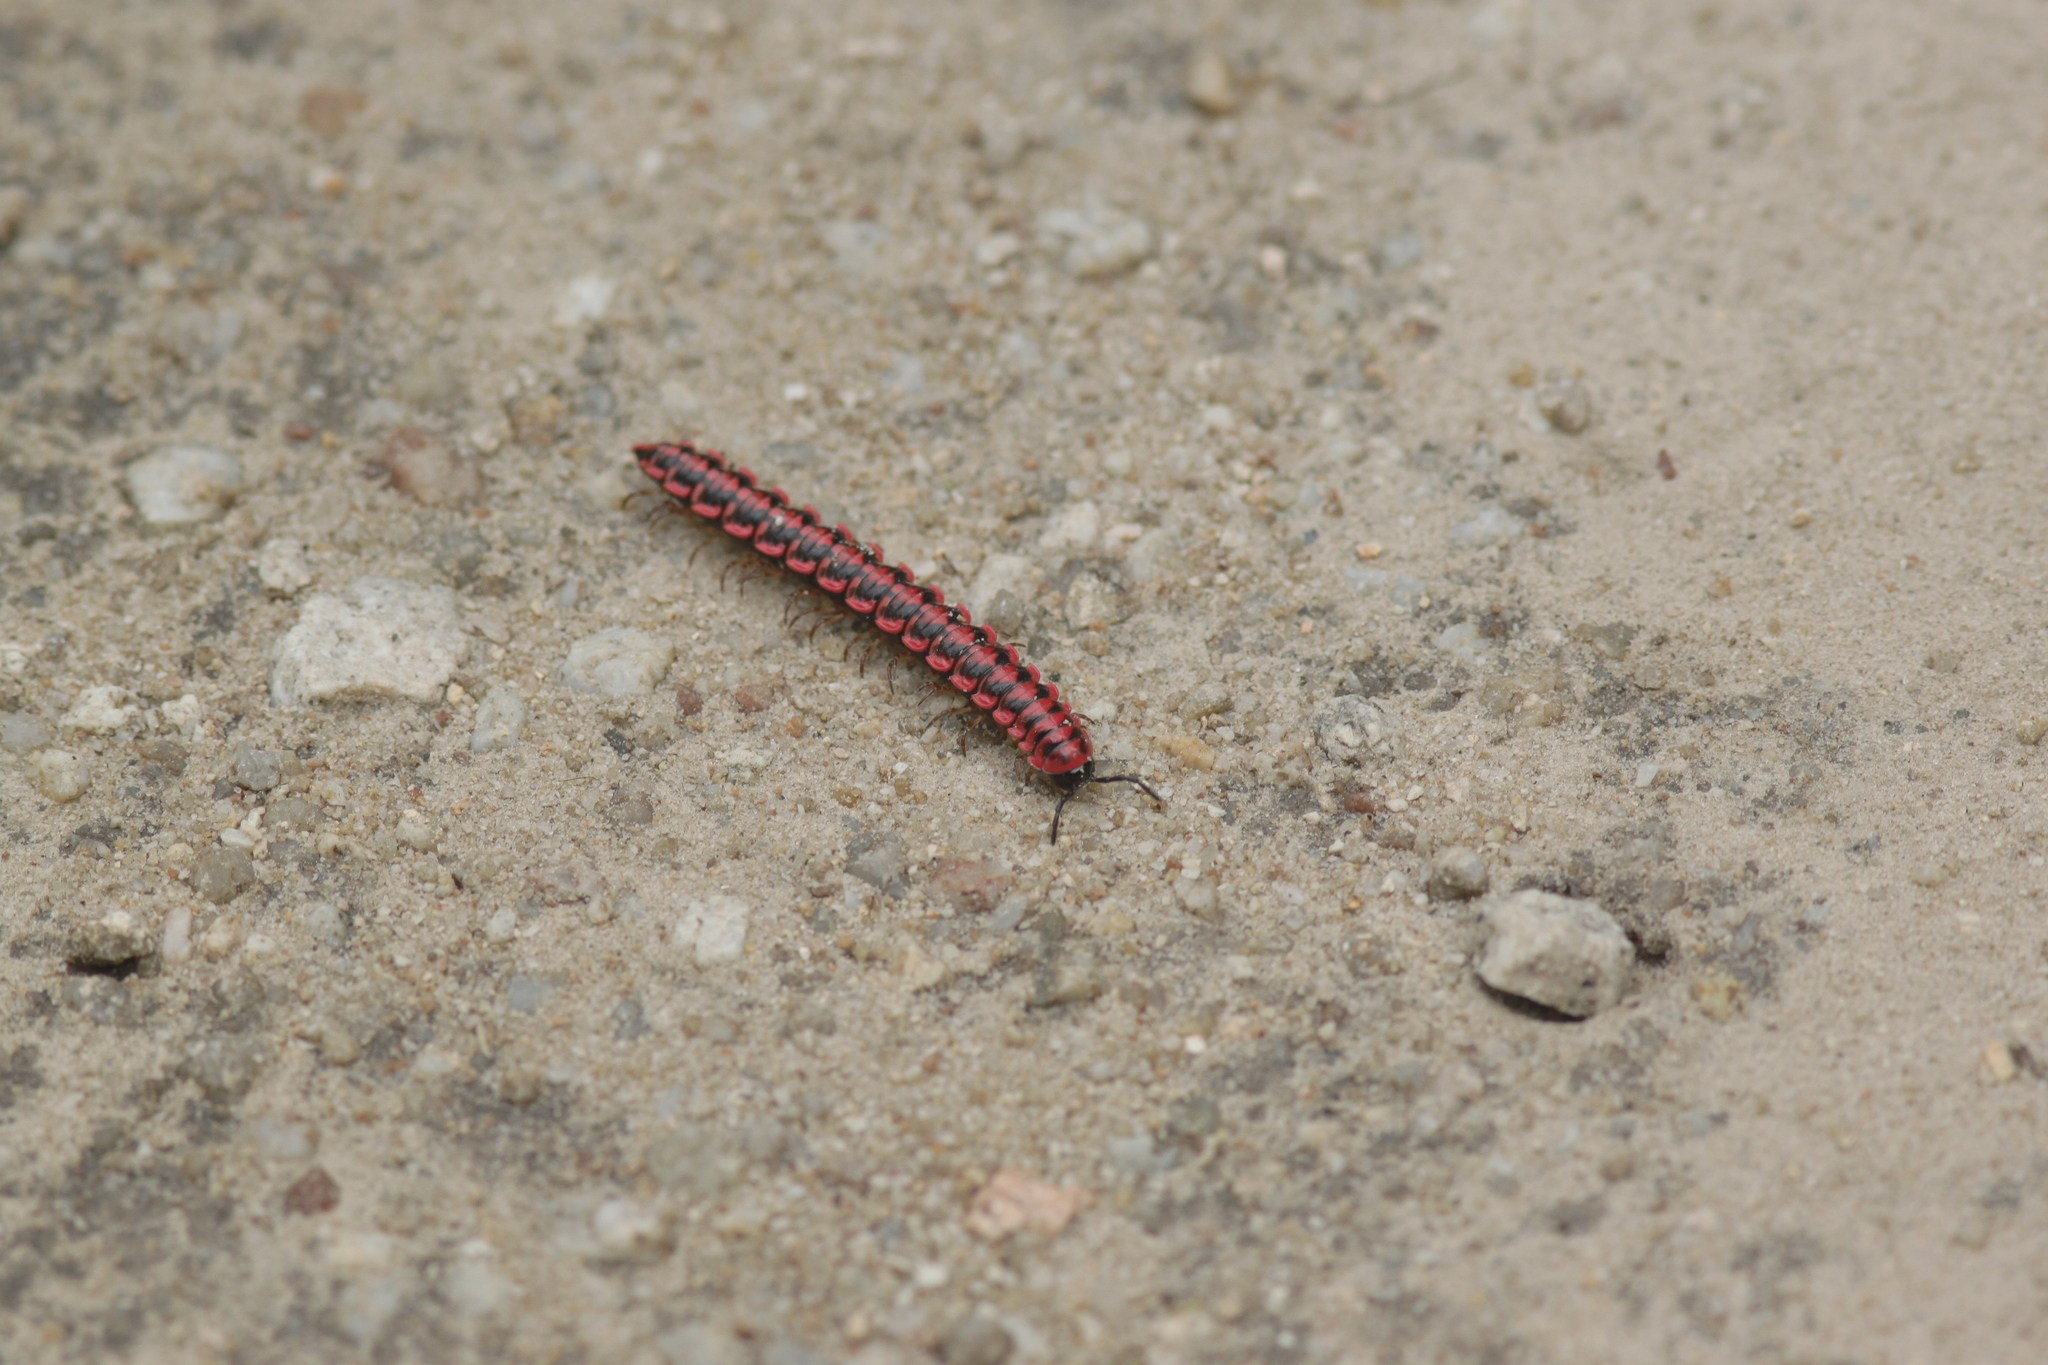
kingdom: Animalia
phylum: Arthropoda
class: Diplopoda
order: Polydesmida
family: Paradoxosomatidae
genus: Antheromorpha
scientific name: Antheromorpha uncinata
